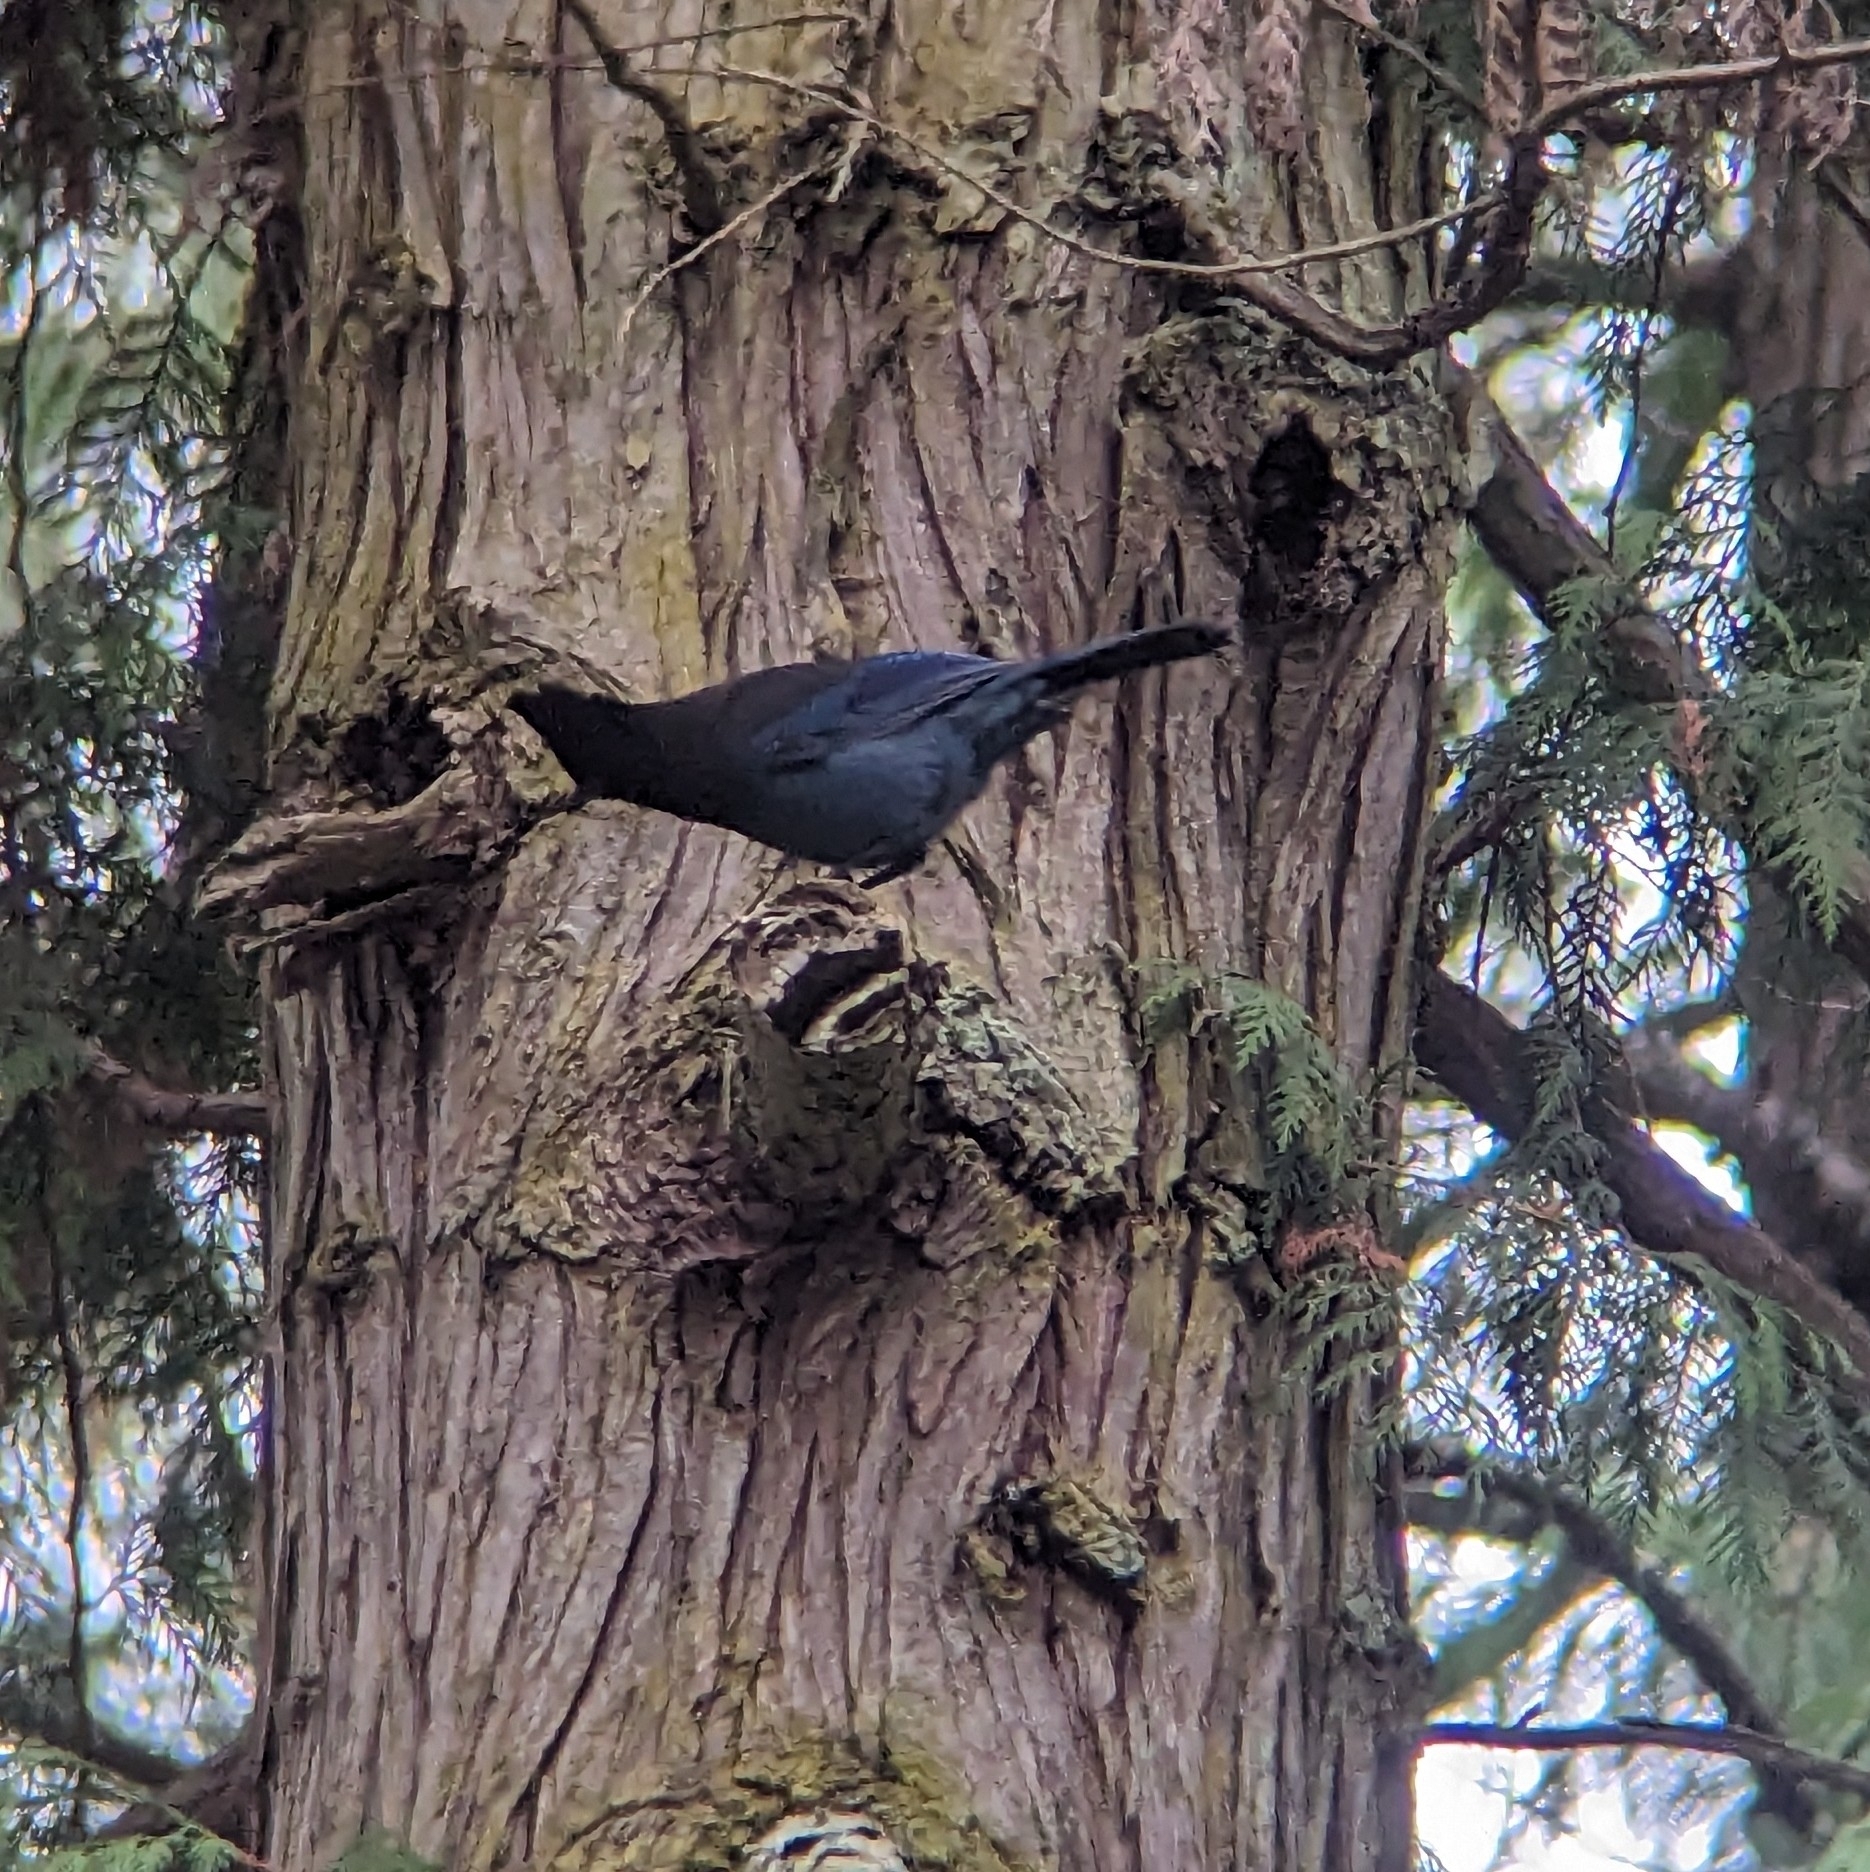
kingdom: Animalia
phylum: Chordata
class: Aves
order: Passeriformes
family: Corvidae
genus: Cyanocitta
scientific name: Cyanocitta stelleri
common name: Steller's jay
